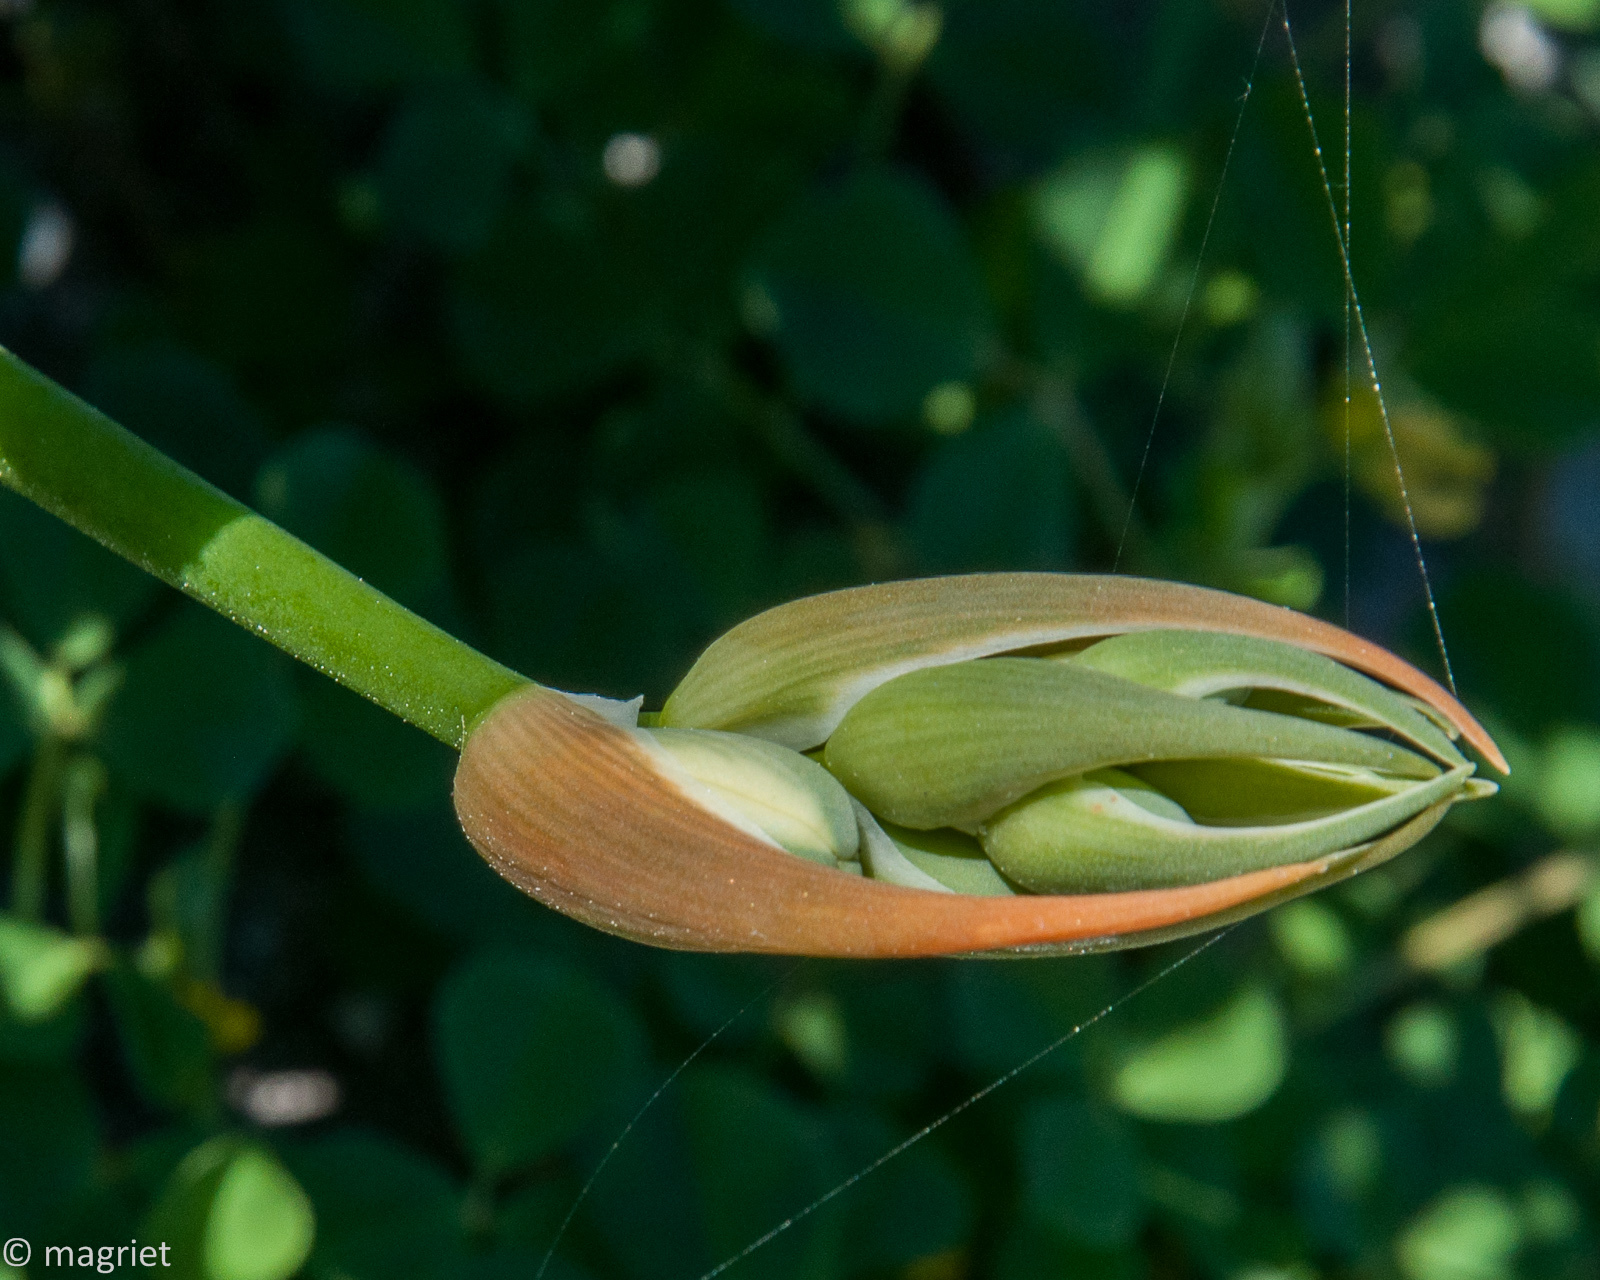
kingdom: Plantae
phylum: Tracheophyta
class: Liliopsida
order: Asparagales
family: Asparagaceae
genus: Albuca
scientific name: Albuca cooperi
